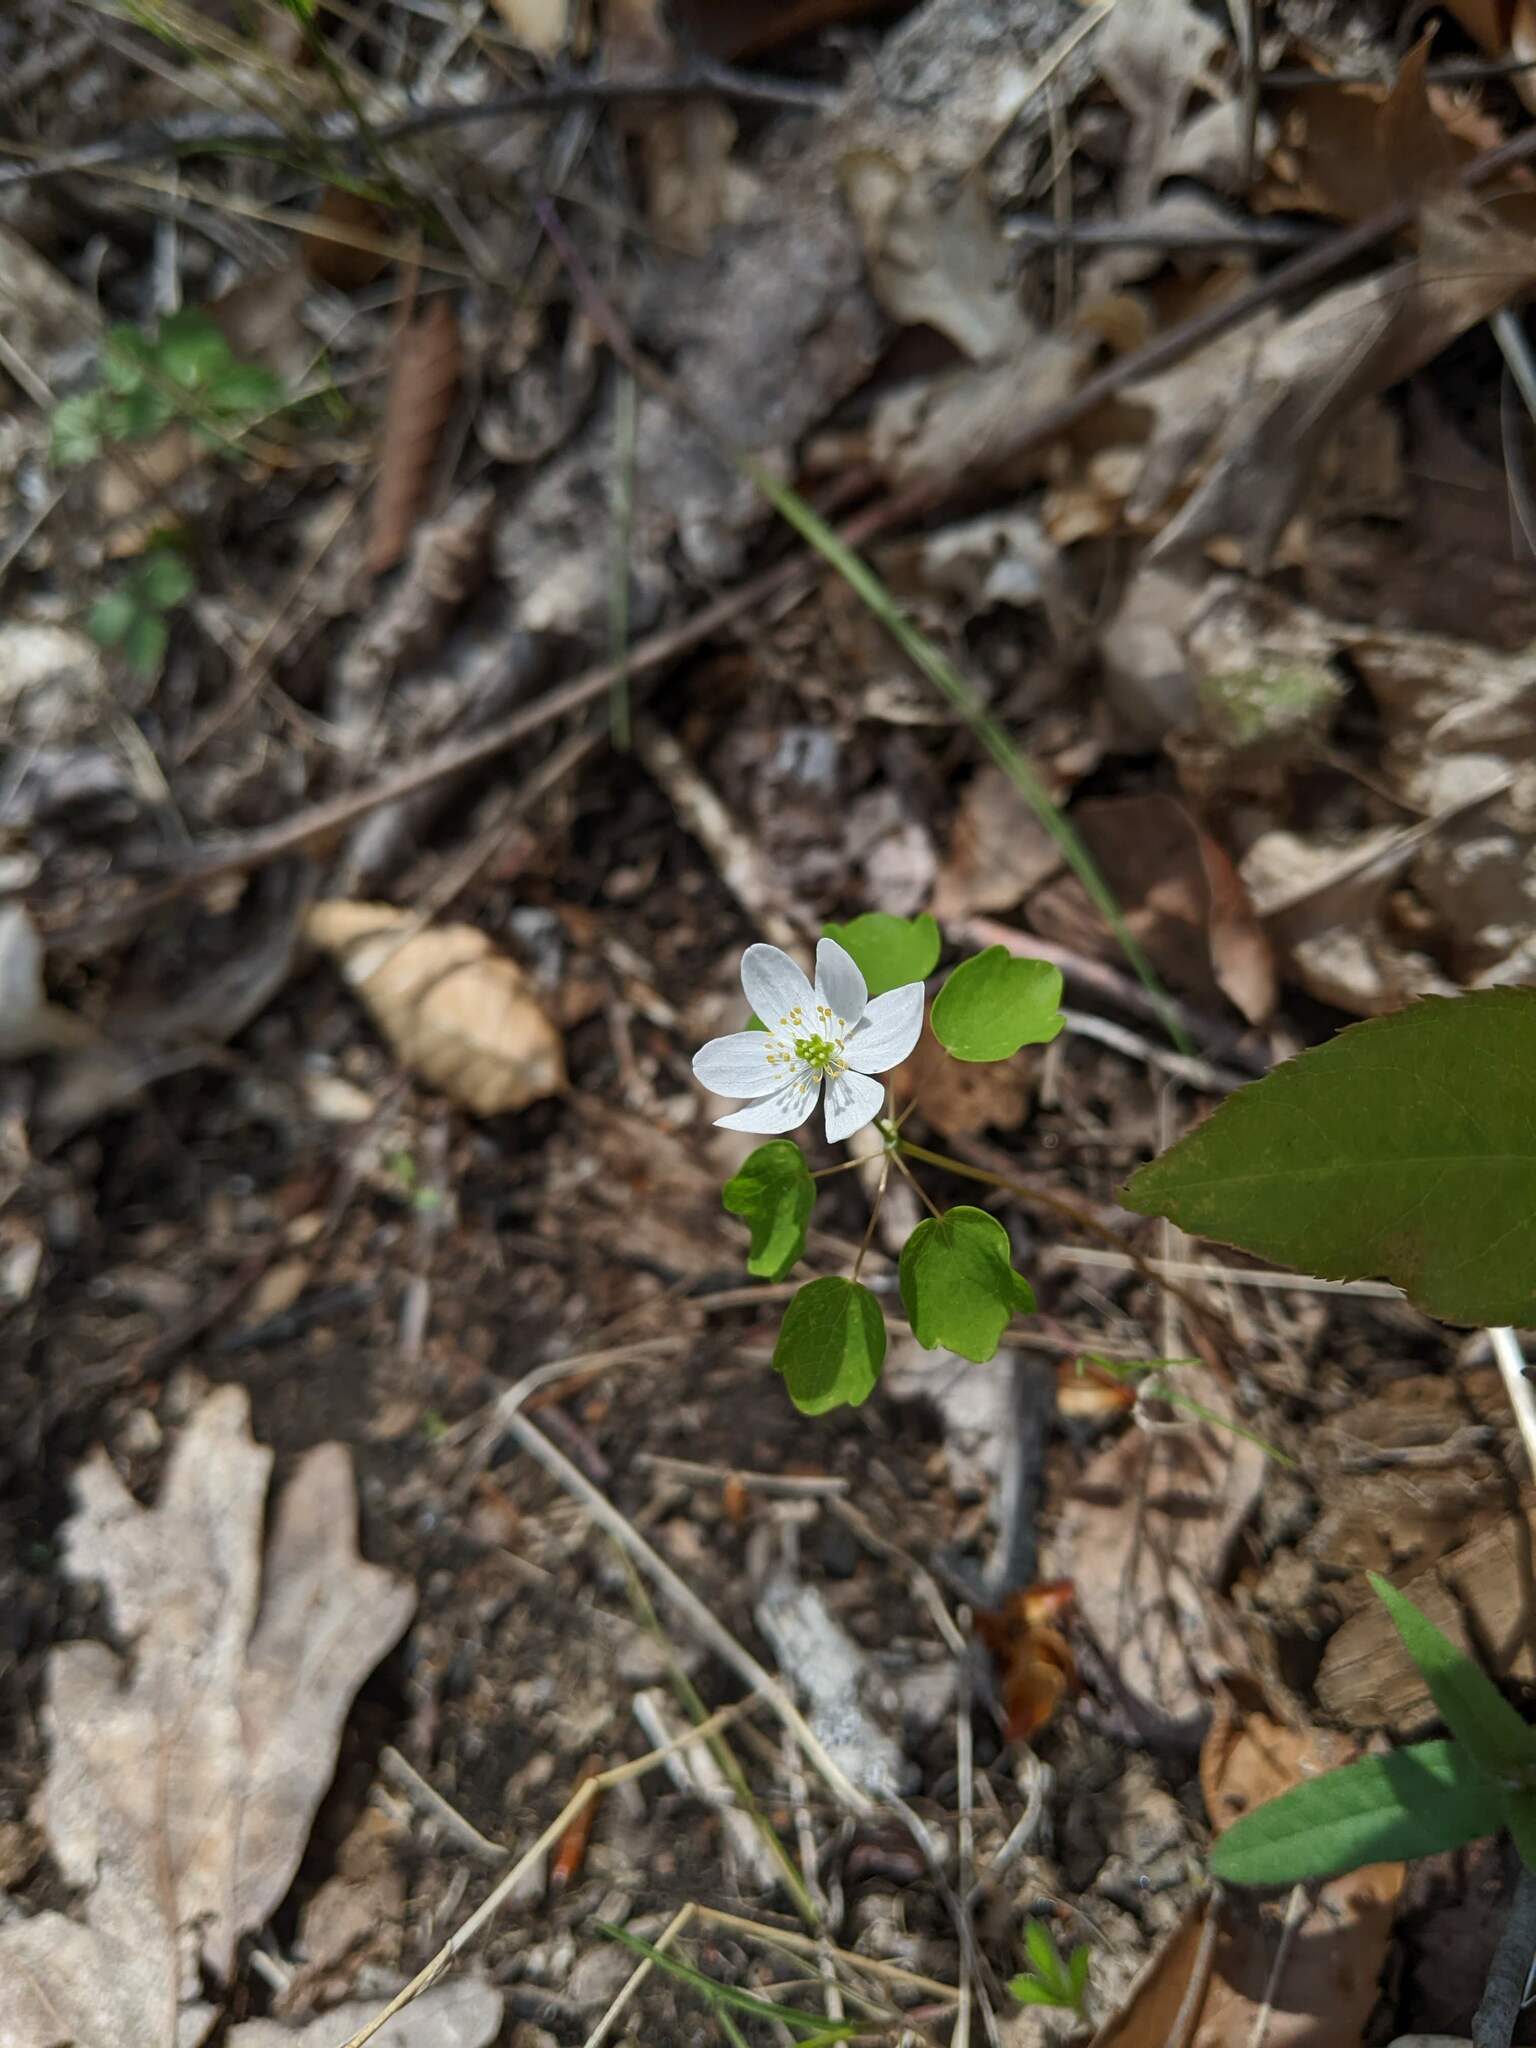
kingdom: Plantae
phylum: Tracheophyta
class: Magnoliopsida
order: Ranunculales
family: Ranunculaceae
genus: Thalictrum
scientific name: Thalictrum thalictroides
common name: Rue-anemone
